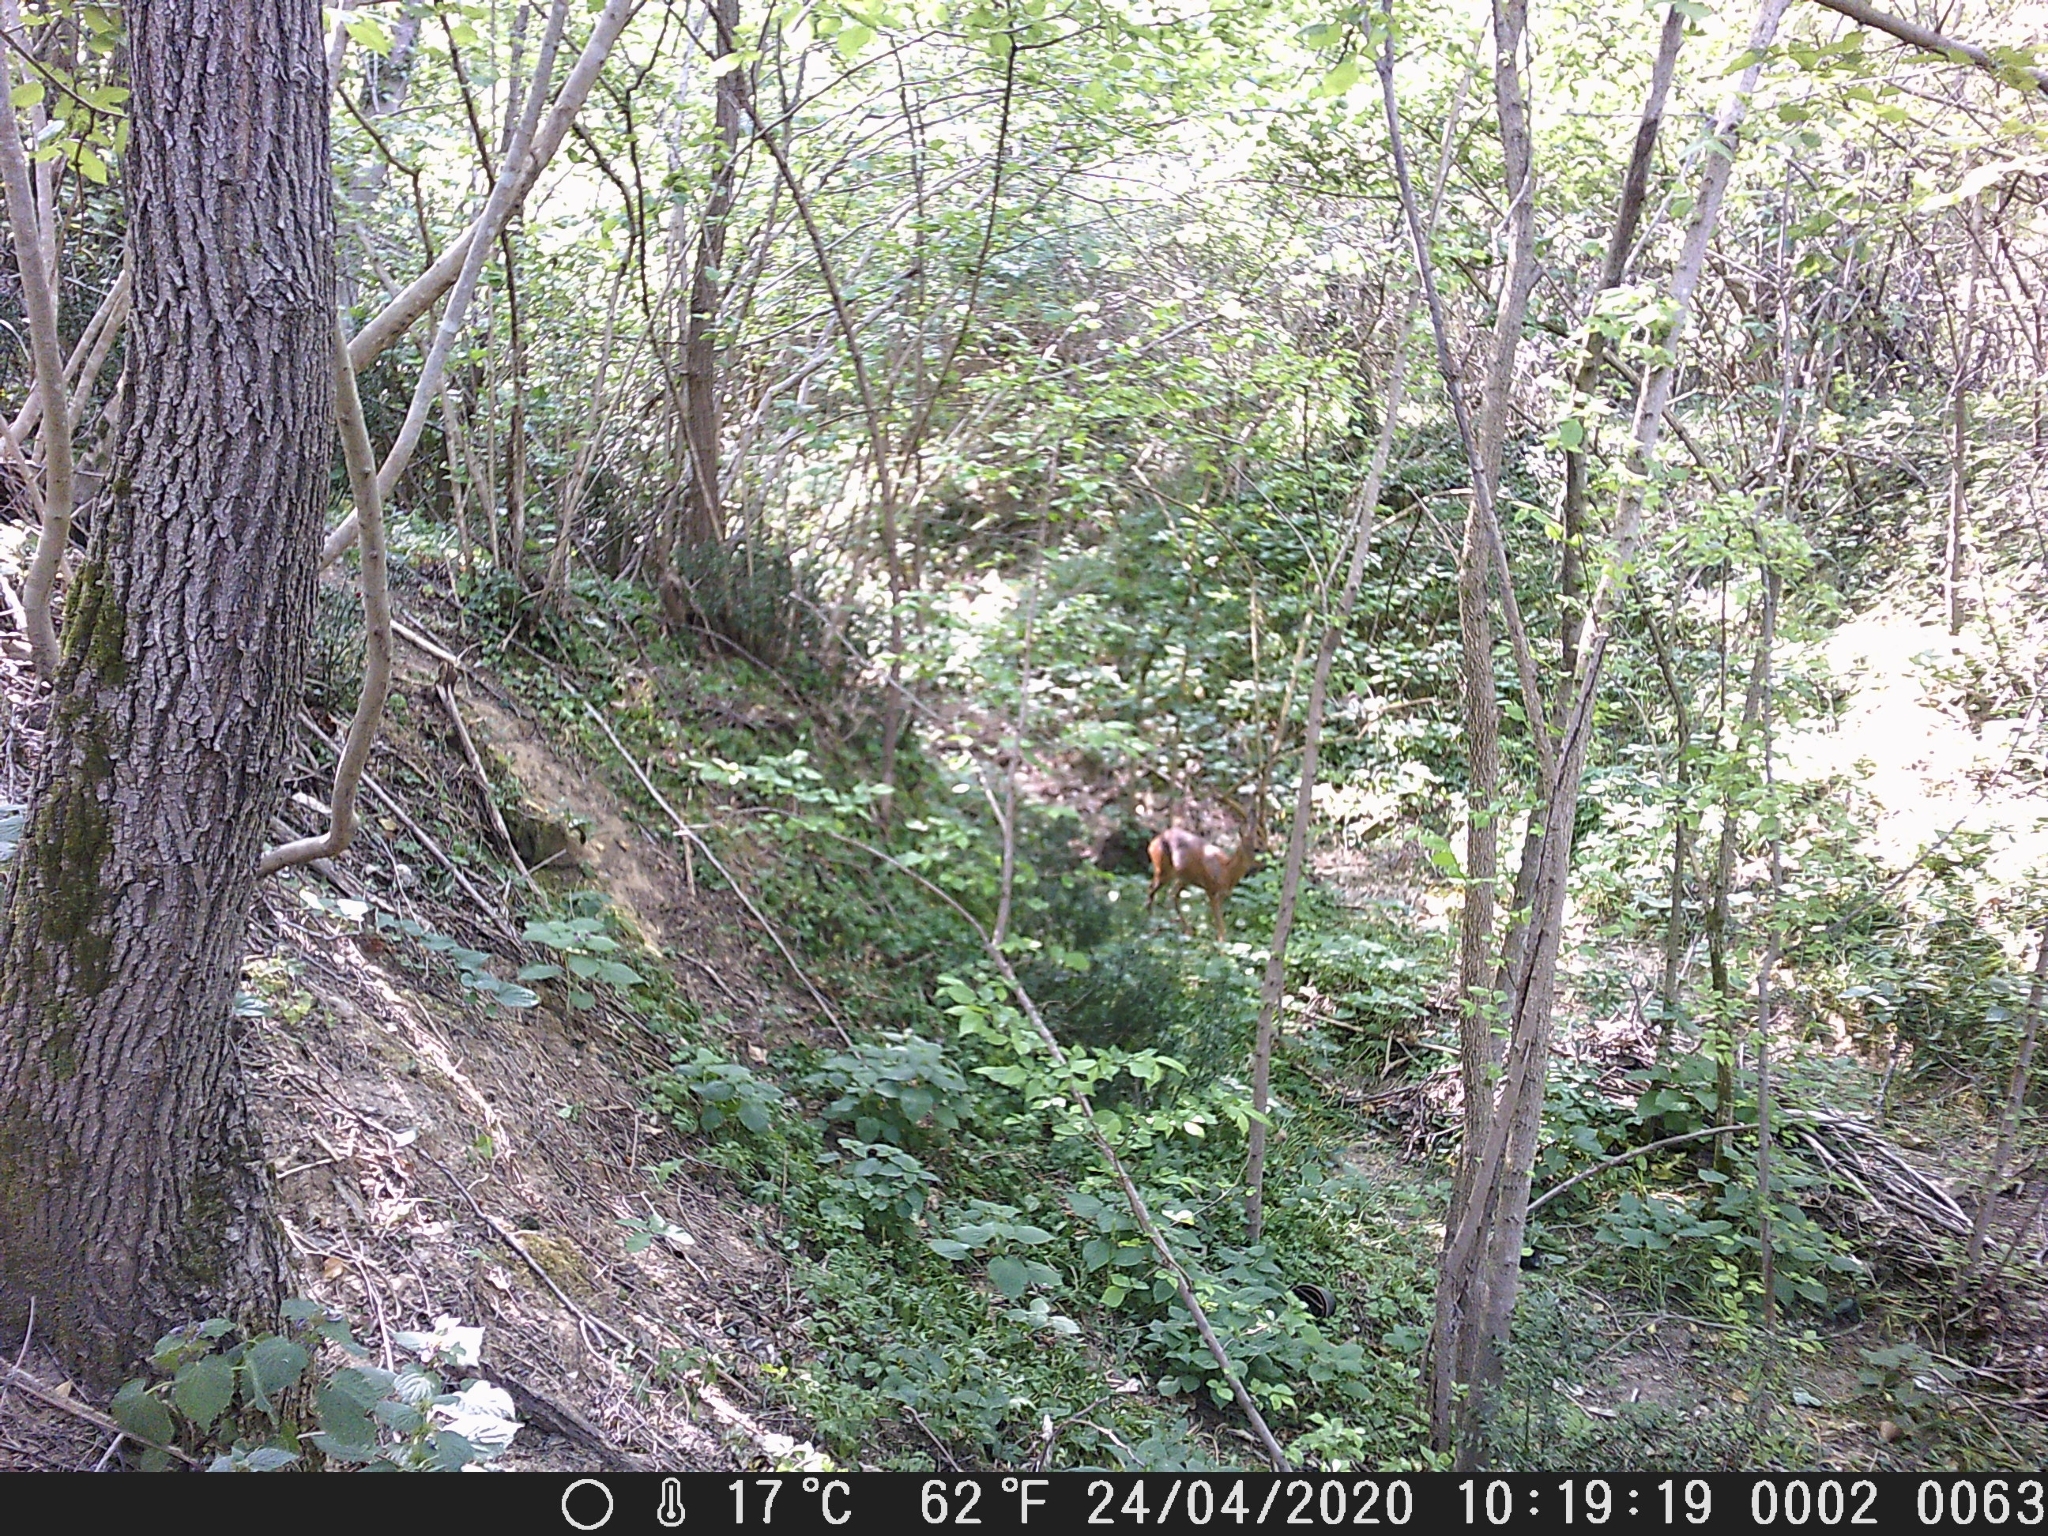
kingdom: Animalia
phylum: Chordata
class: Mammalia
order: Artiodactyla
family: Cervidae
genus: Capreolus
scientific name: Capreolus capreolus
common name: Western roe deer
